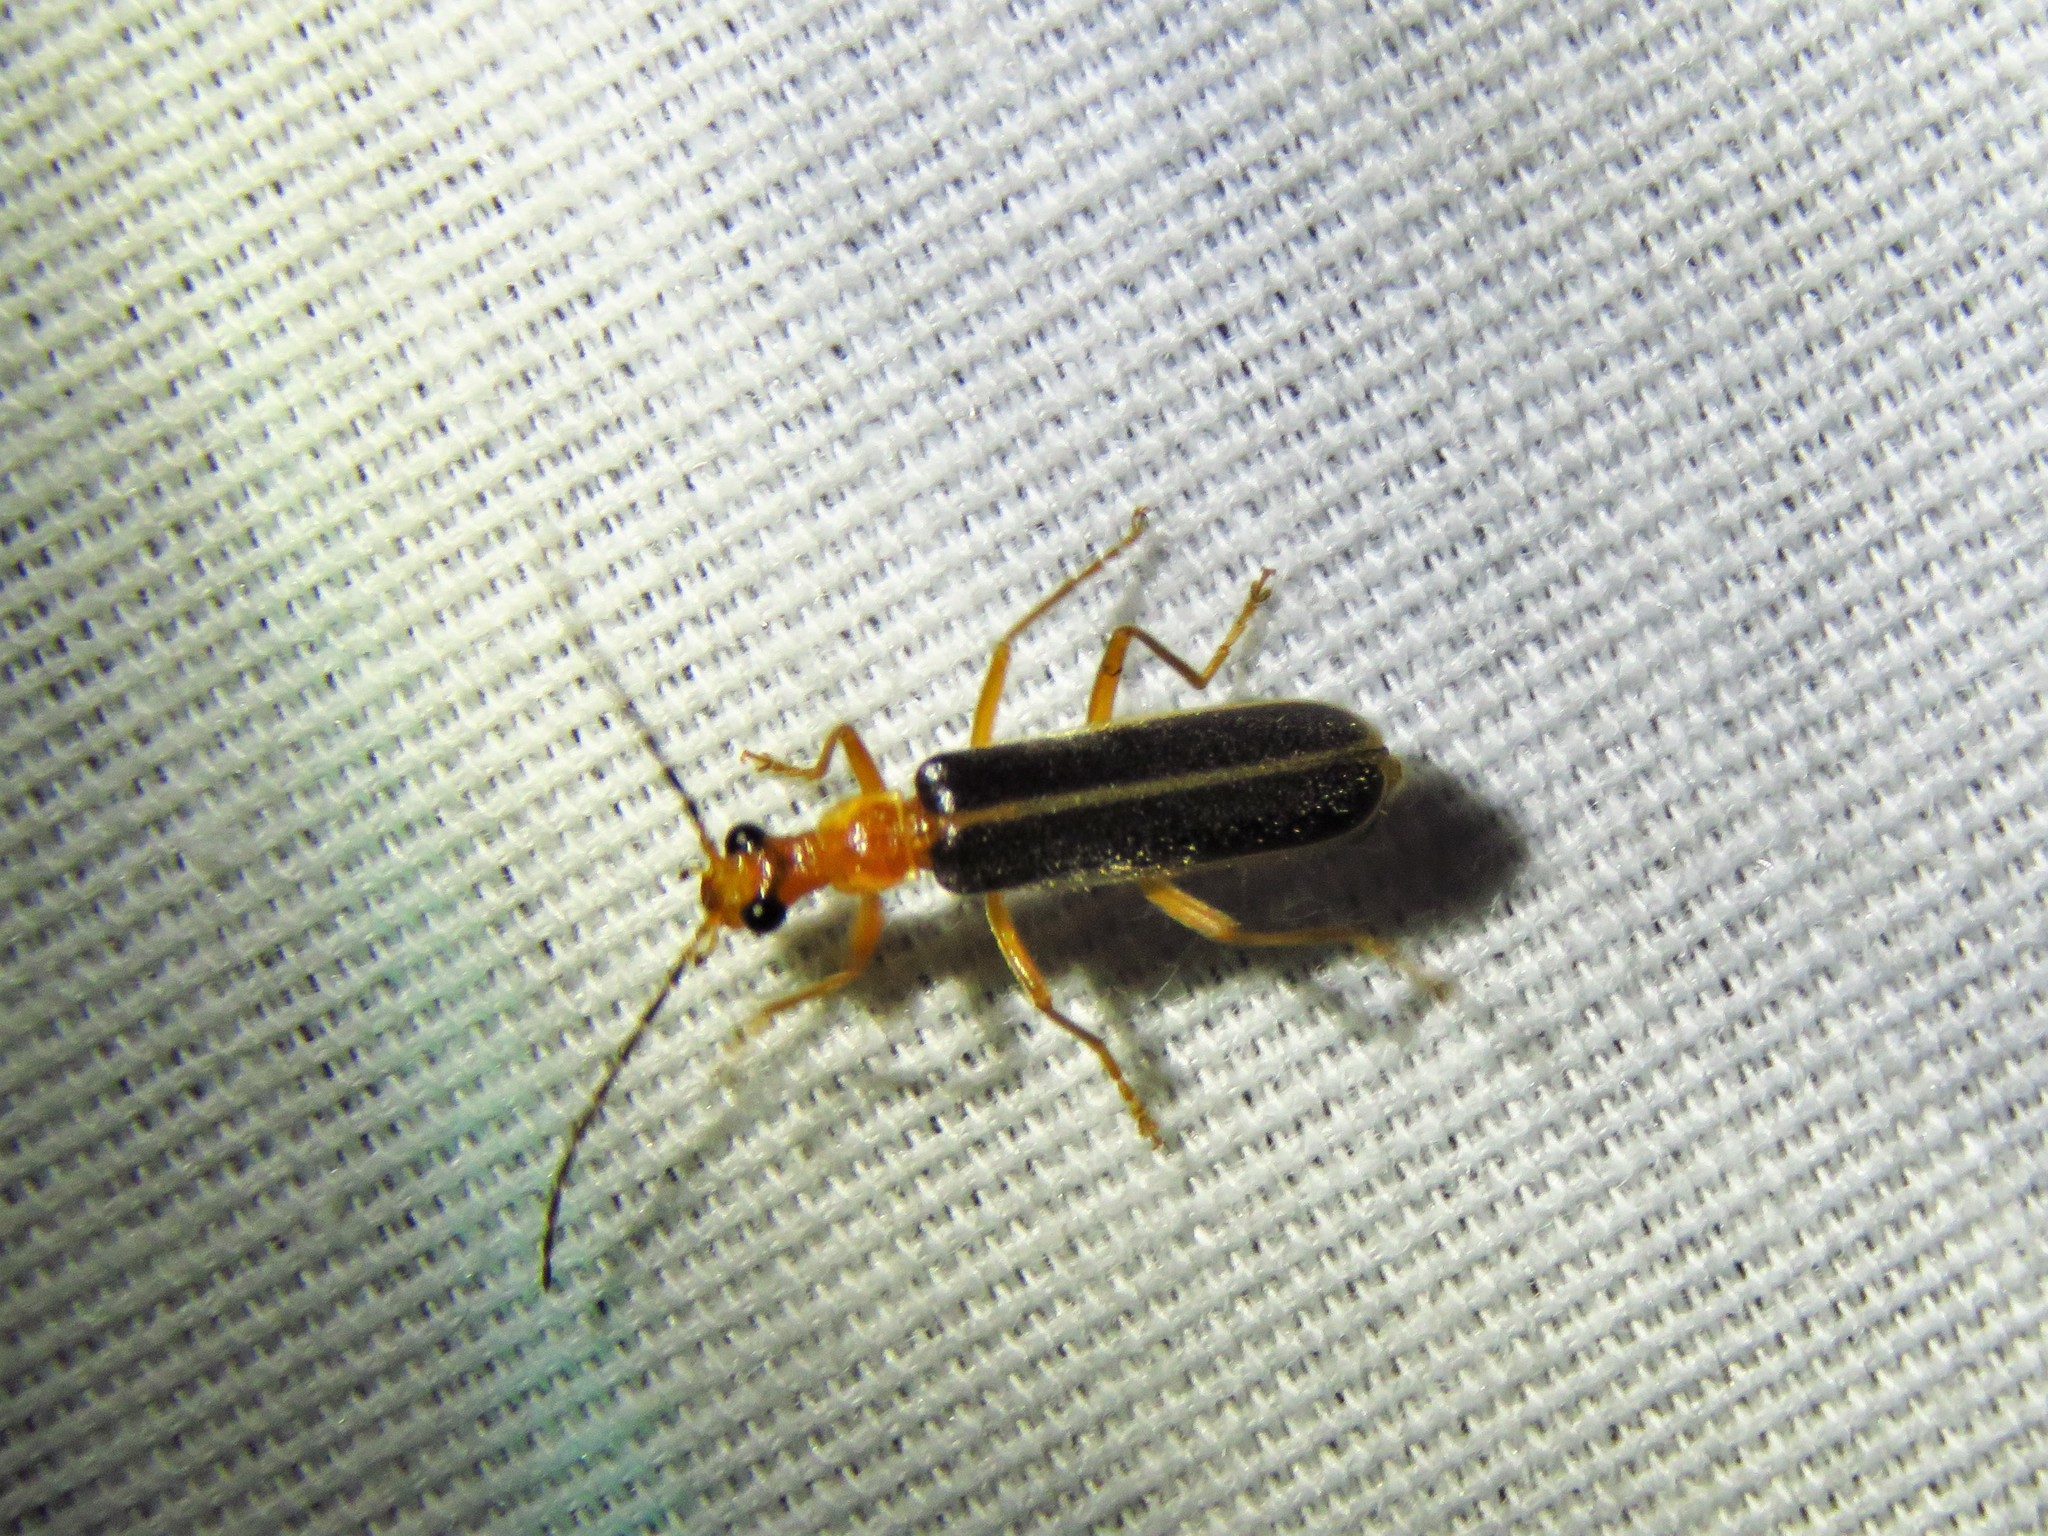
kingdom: Animalia
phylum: Arthropoda
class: Insecta
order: Coleoptera
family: Cantharidae
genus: Podabrus
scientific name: Podabrus brunnicollis
